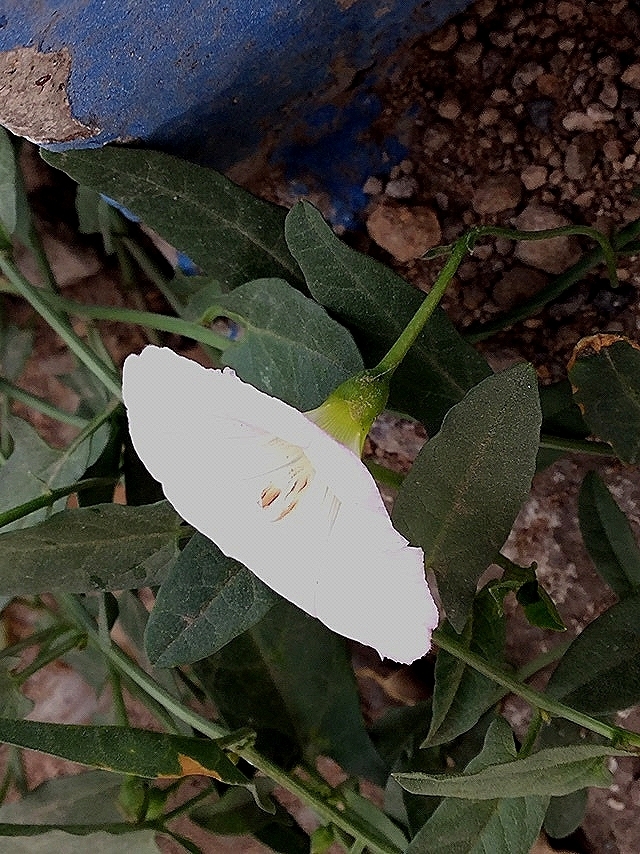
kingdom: Plantae
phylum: Tracheophyta
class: Magnoliopsida
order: Solanales
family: Convolvulaceae
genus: Convolvulus
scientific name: Convolvulus arvensis
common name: Field bindweed
